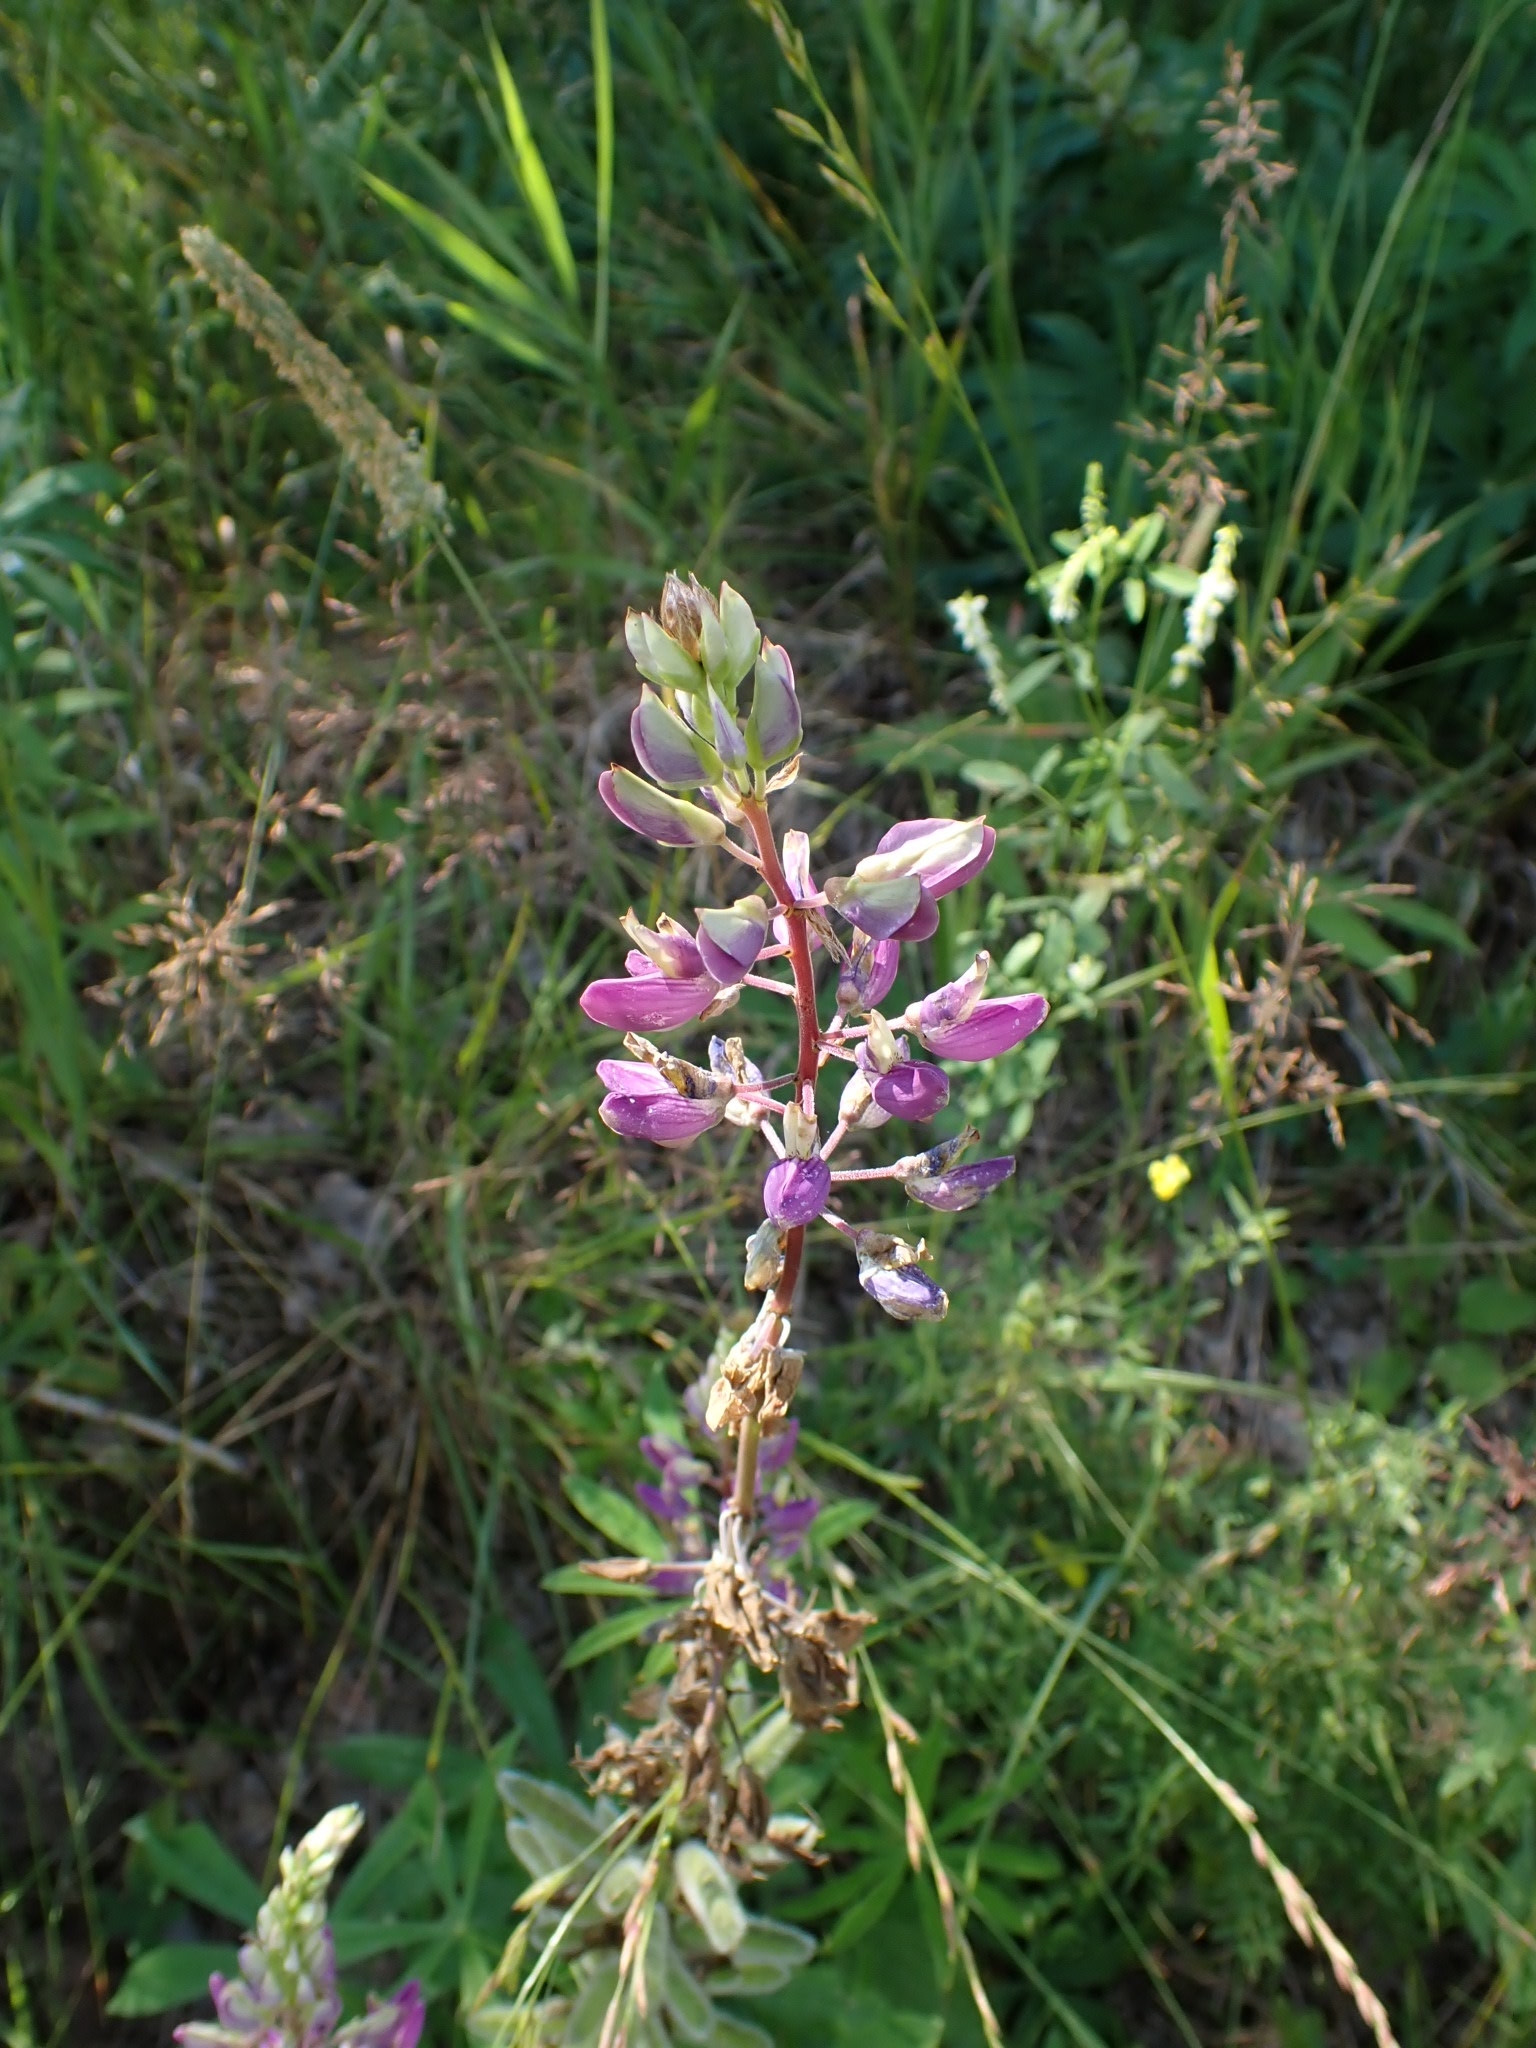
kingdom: Plantae
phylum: Tracheophyta
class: Magnoliopsida
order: Fabales
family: Fabaceae
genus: Lupinus
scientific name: Lupinus polyphyllus
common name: Garden lupin
